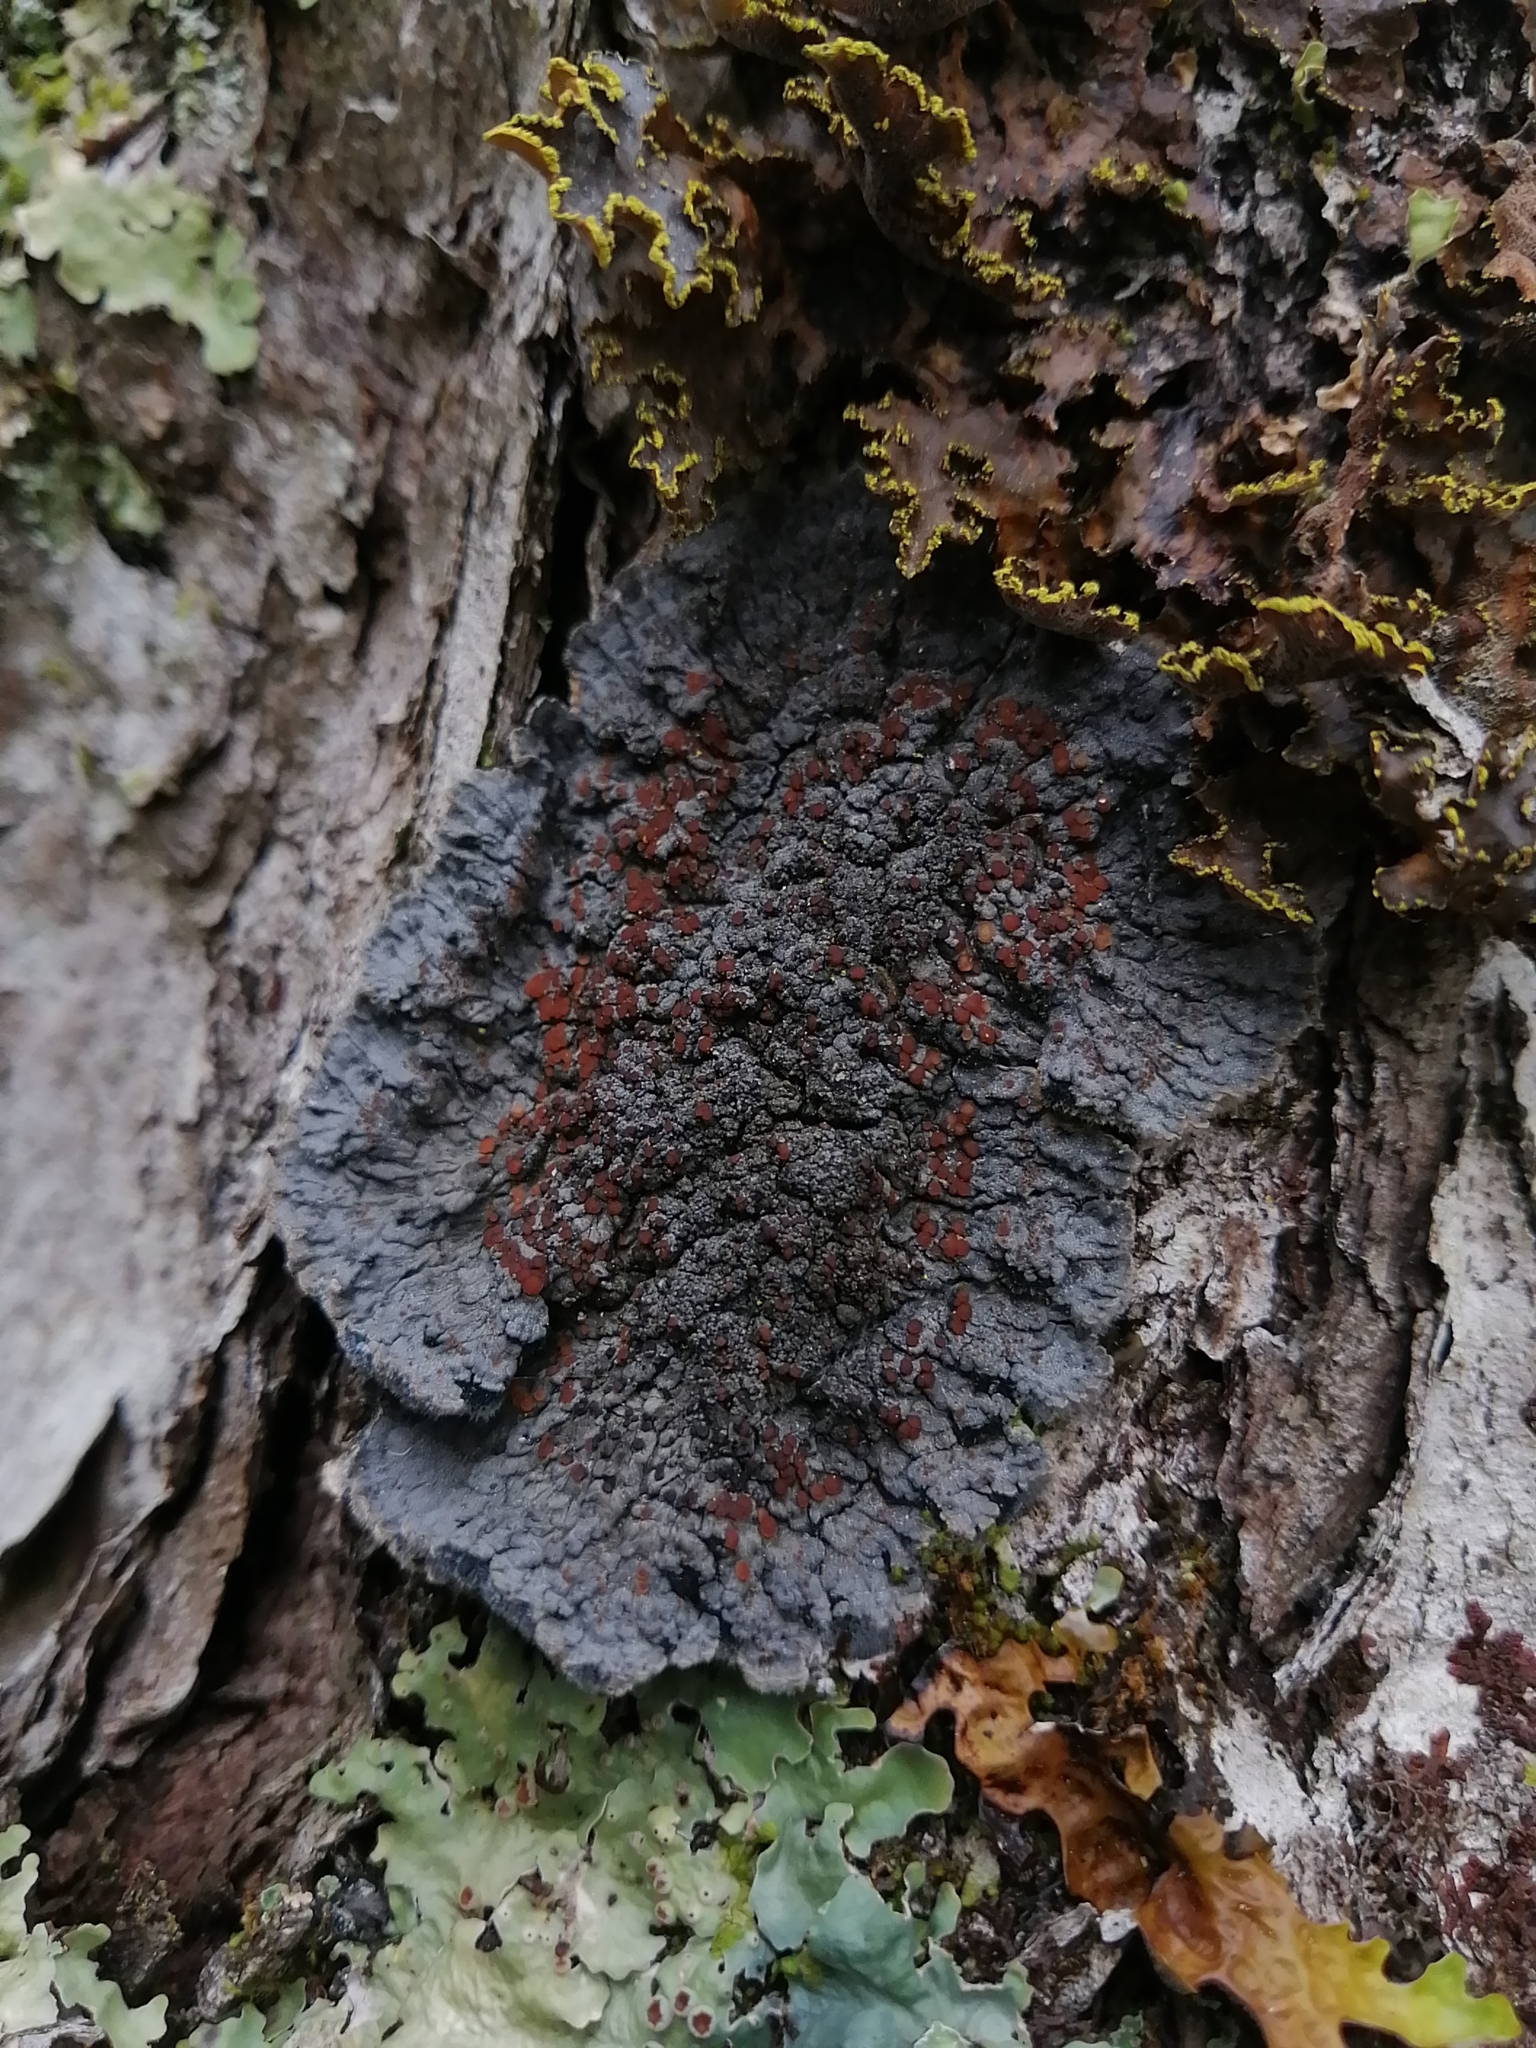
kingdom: Fungi
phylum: Ascomycota
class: Lecanoromycetes
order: Peltigerales
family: Pannariaceae
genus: Pectenia
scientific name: Pectenia plumbea
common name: Bladder stalks
